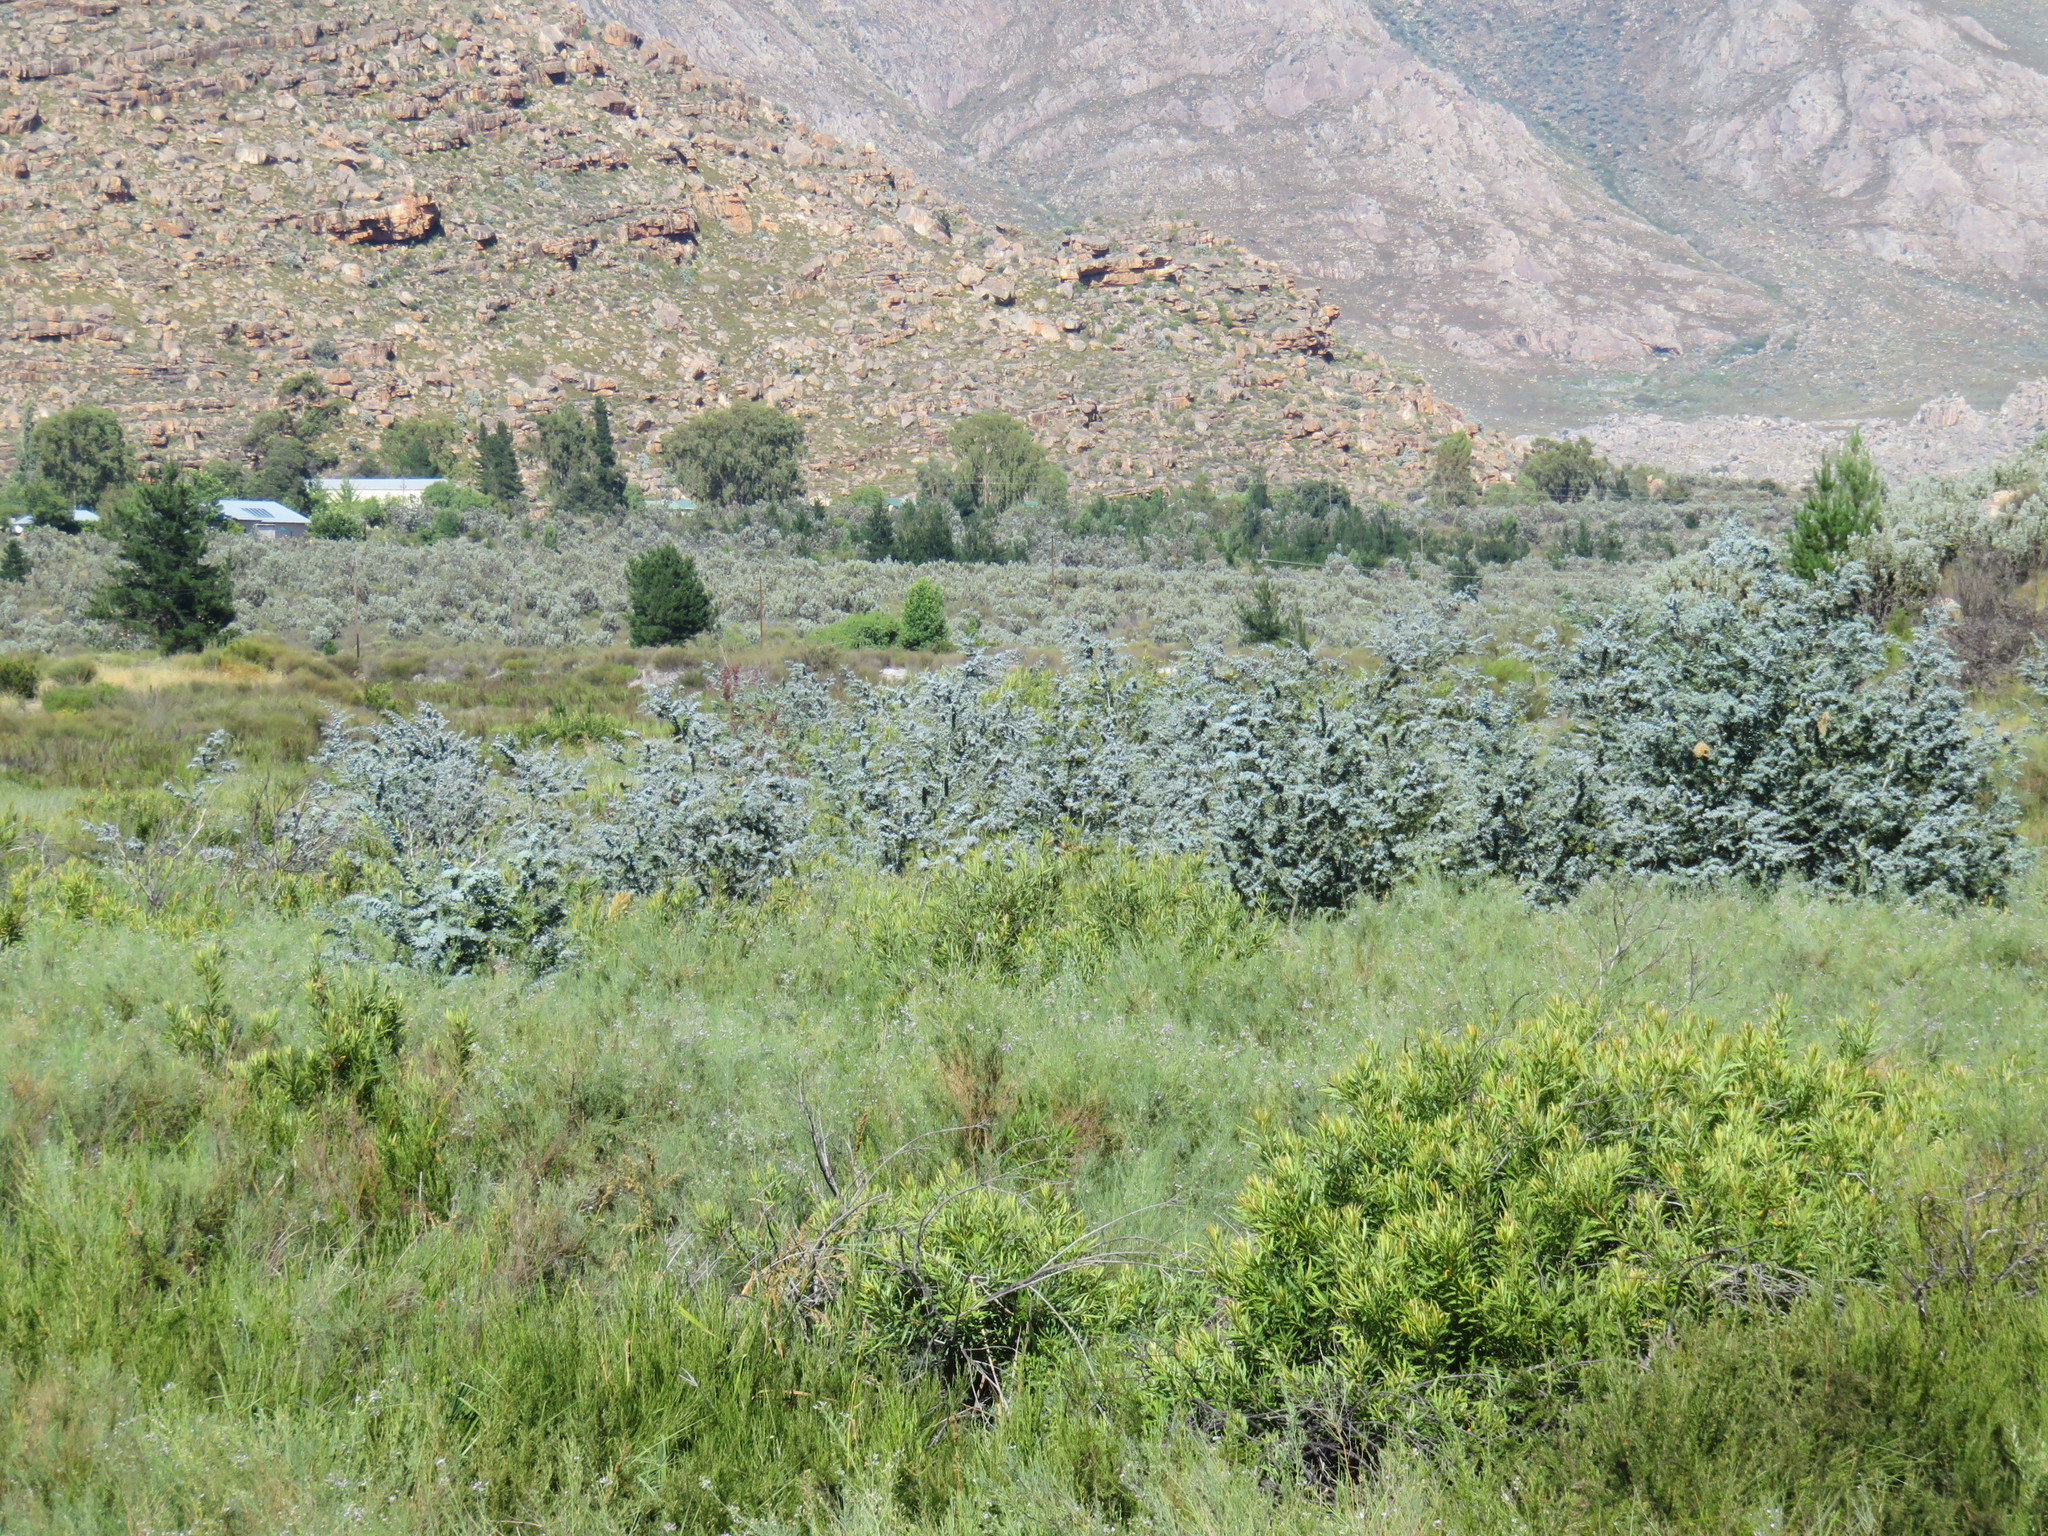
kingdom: Plantae
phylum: Tracheophyta
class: Magnoliopsida
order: Fabales
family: Fabaceae
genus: Acacia
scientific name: Acacia baileyana
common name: Cootamundra wattle
